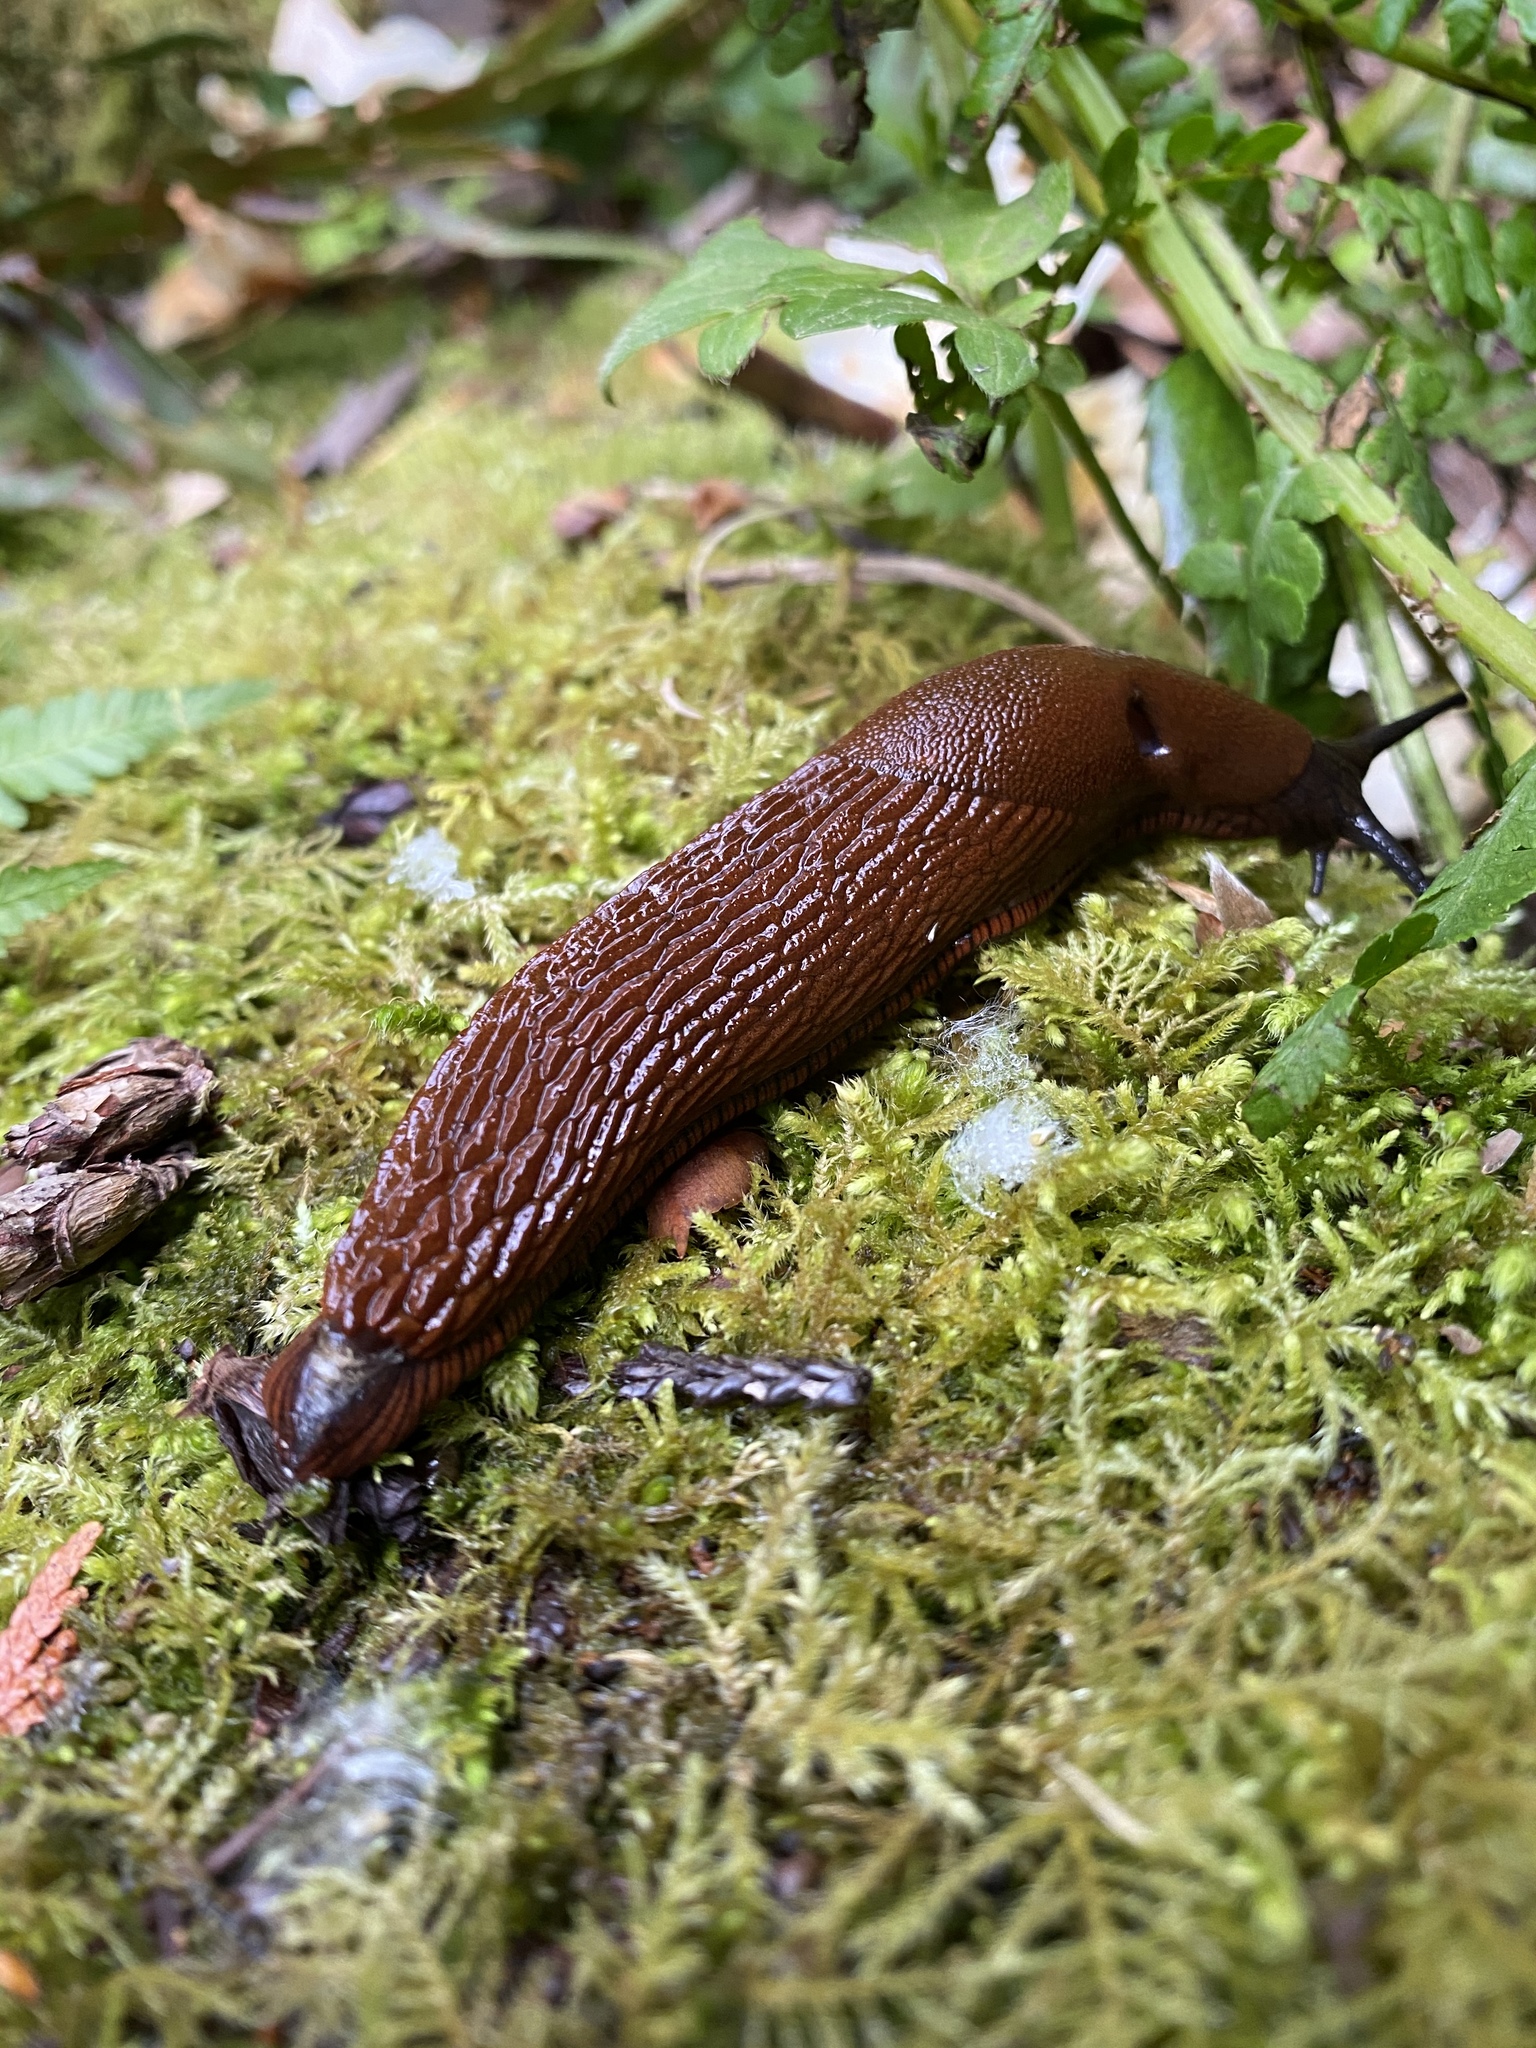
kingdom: Animalia
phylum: Mollusca
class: Gastropoda
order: Stylommatophora
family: Arionidae
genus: Arion
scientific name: Arion rufus
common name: Chocolate arion
